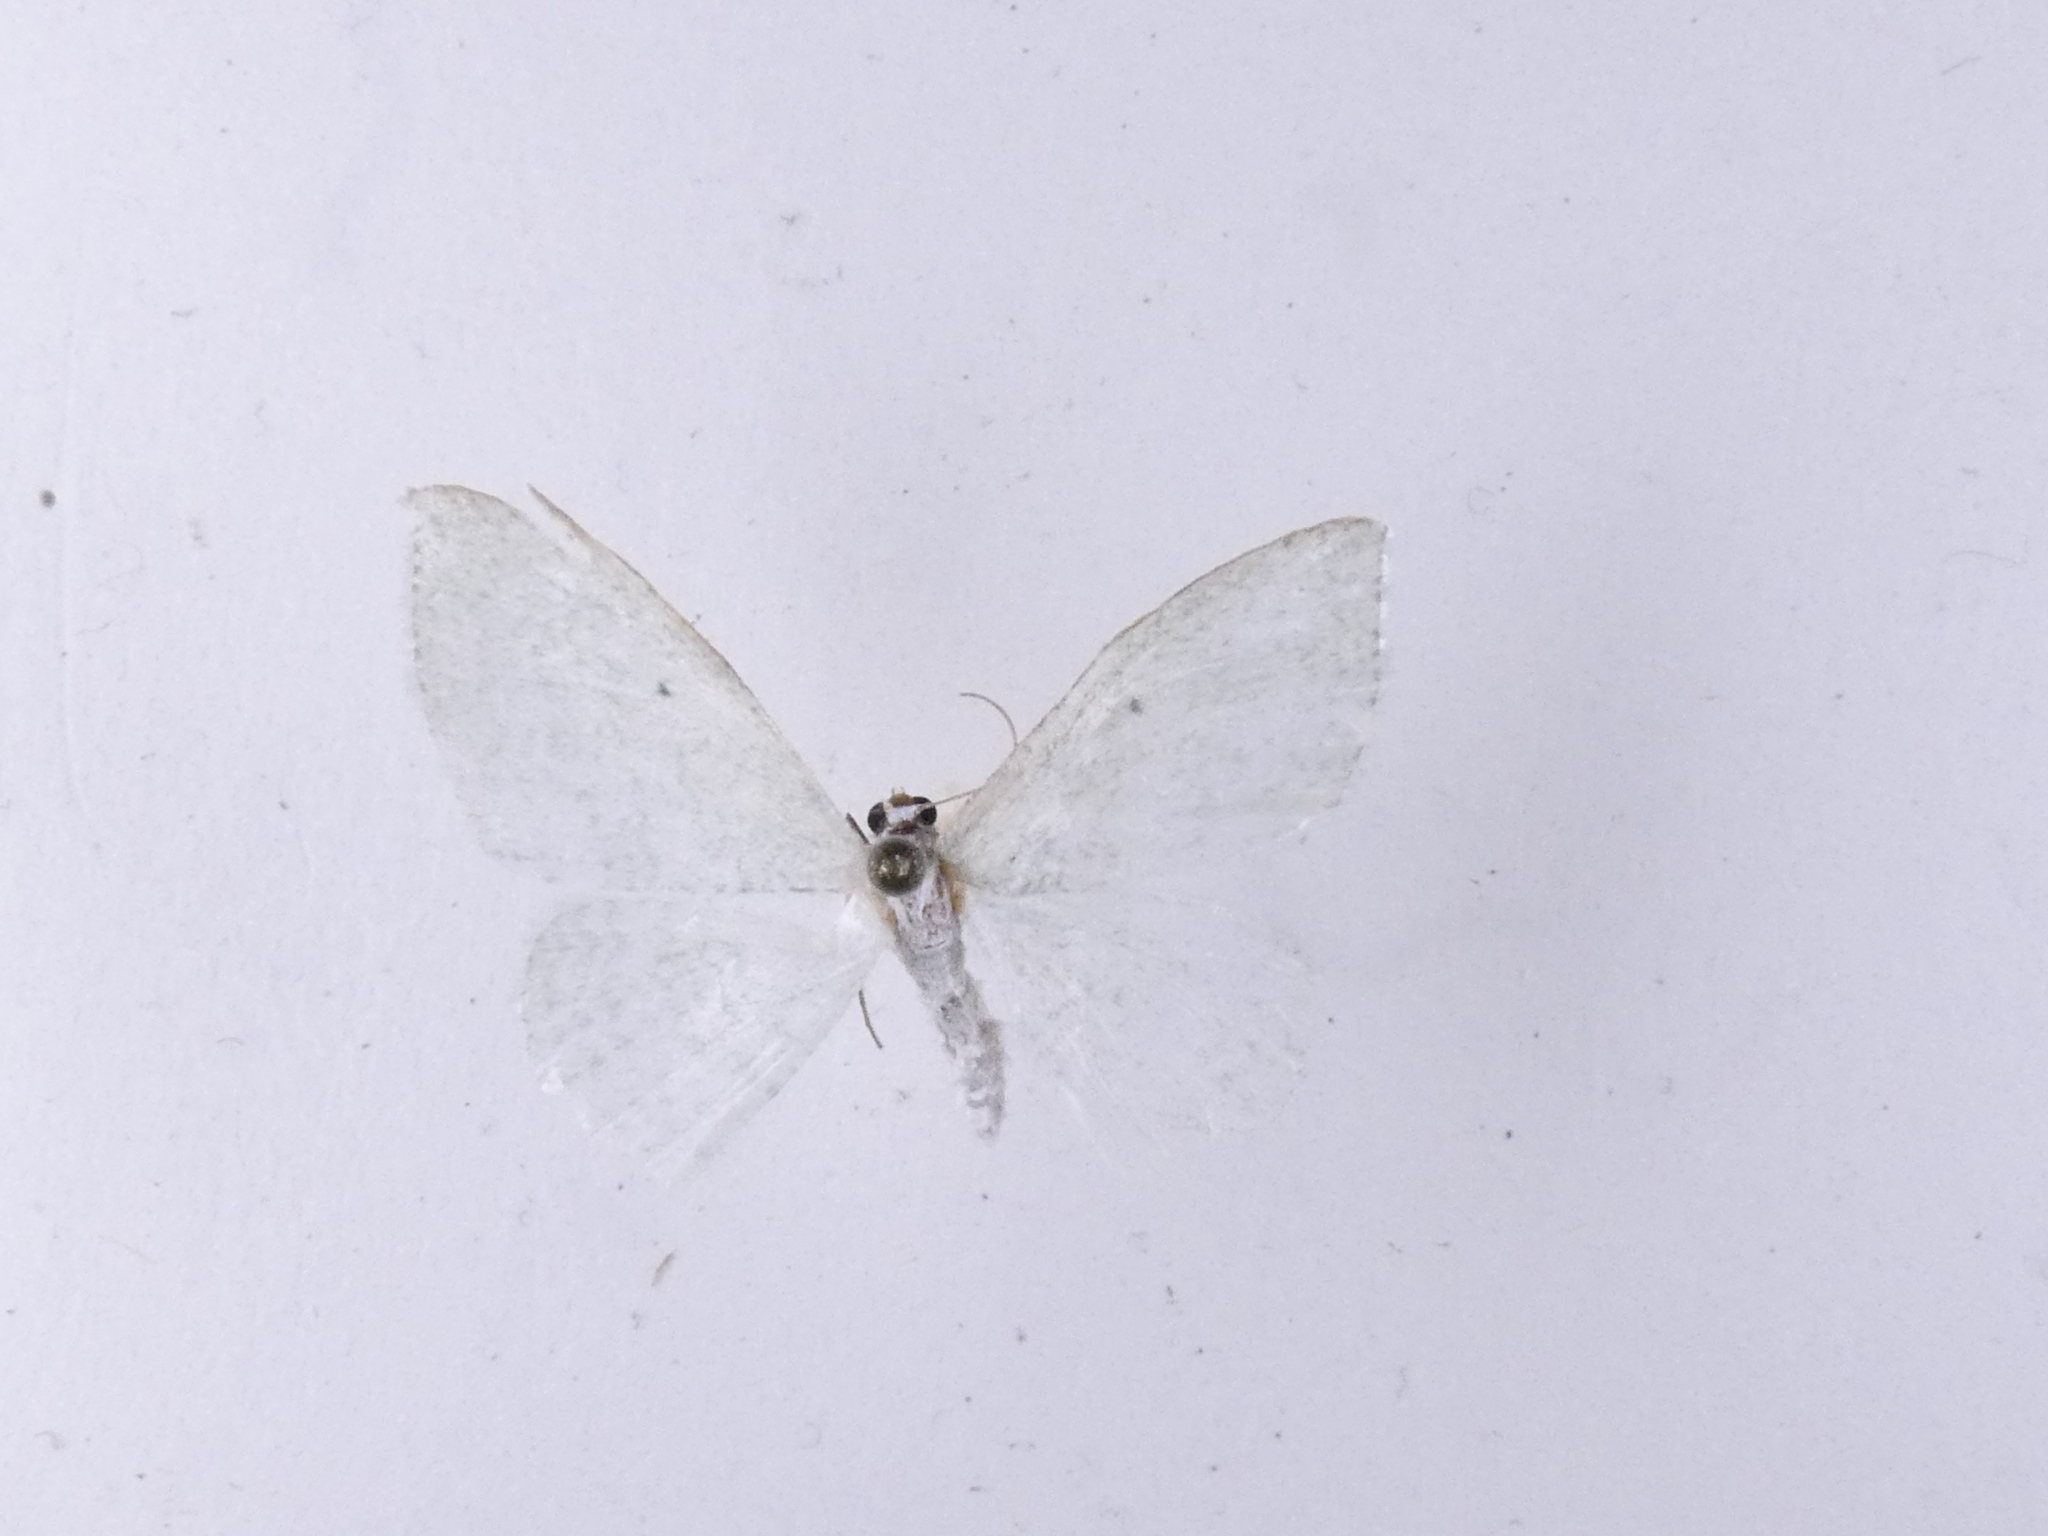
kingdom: Animalia
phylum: Arthropoda
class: Insecta
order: Lepidoptera
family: Geometridae
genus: Poecilasthena
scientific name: Poecilasthena pulchraria
